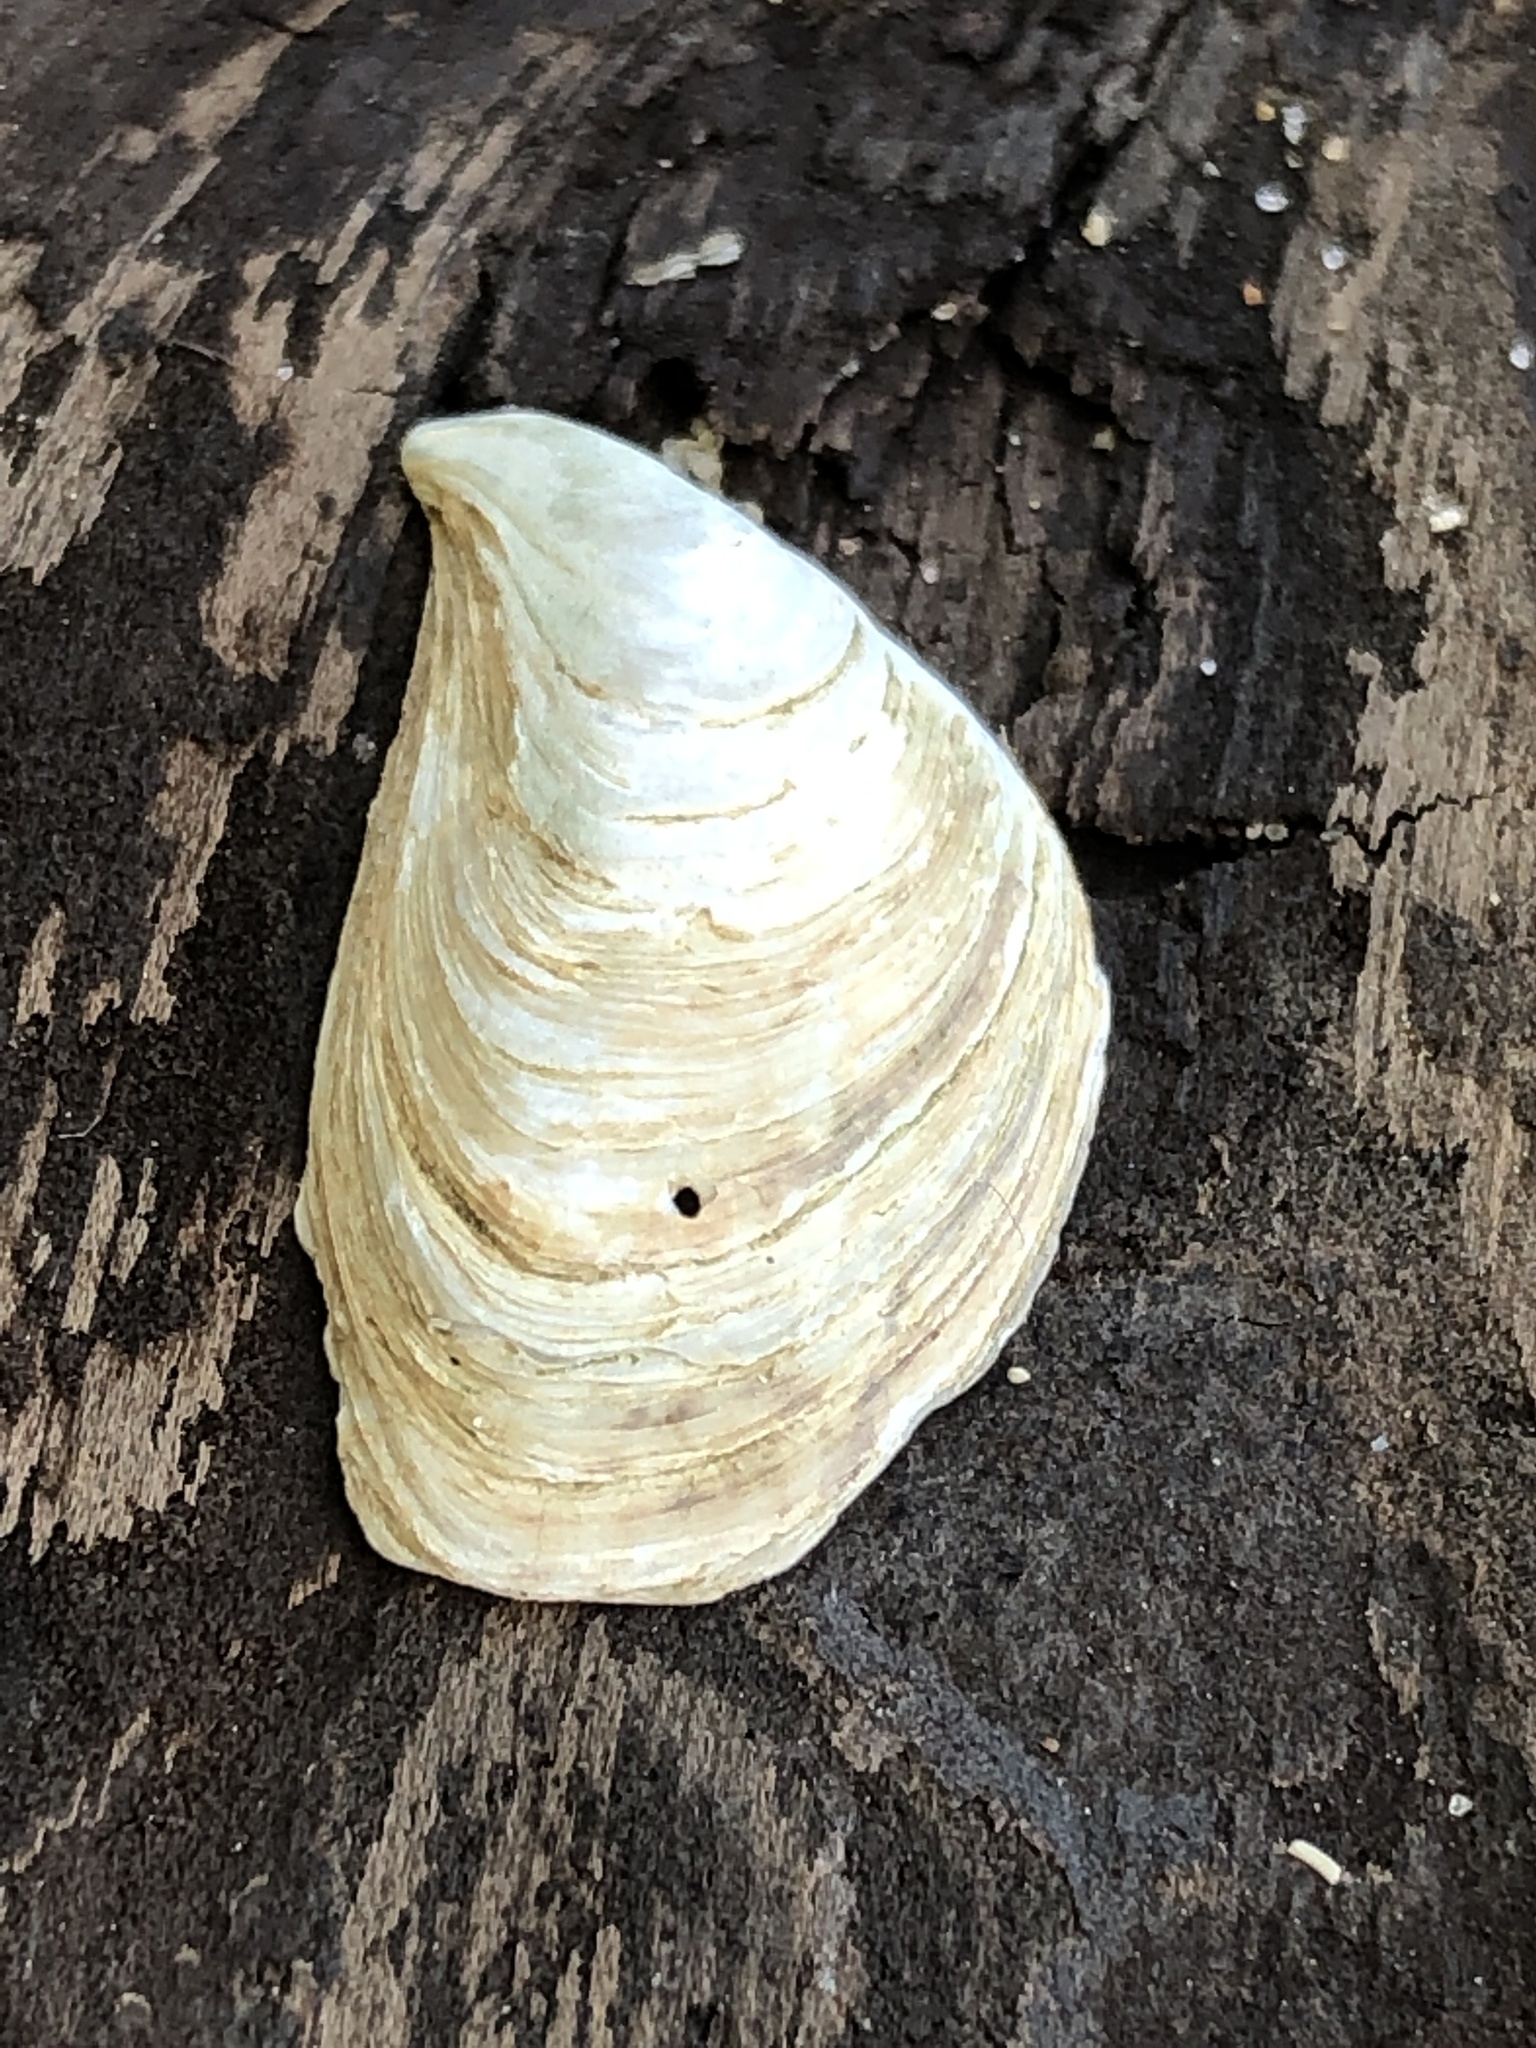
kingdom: Animalia
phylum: Mollusca
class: Bivalvia
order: Myida
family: Dreissenidae
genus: Dreissena
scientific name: Dreissena bugensis
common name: Quagga mussel
